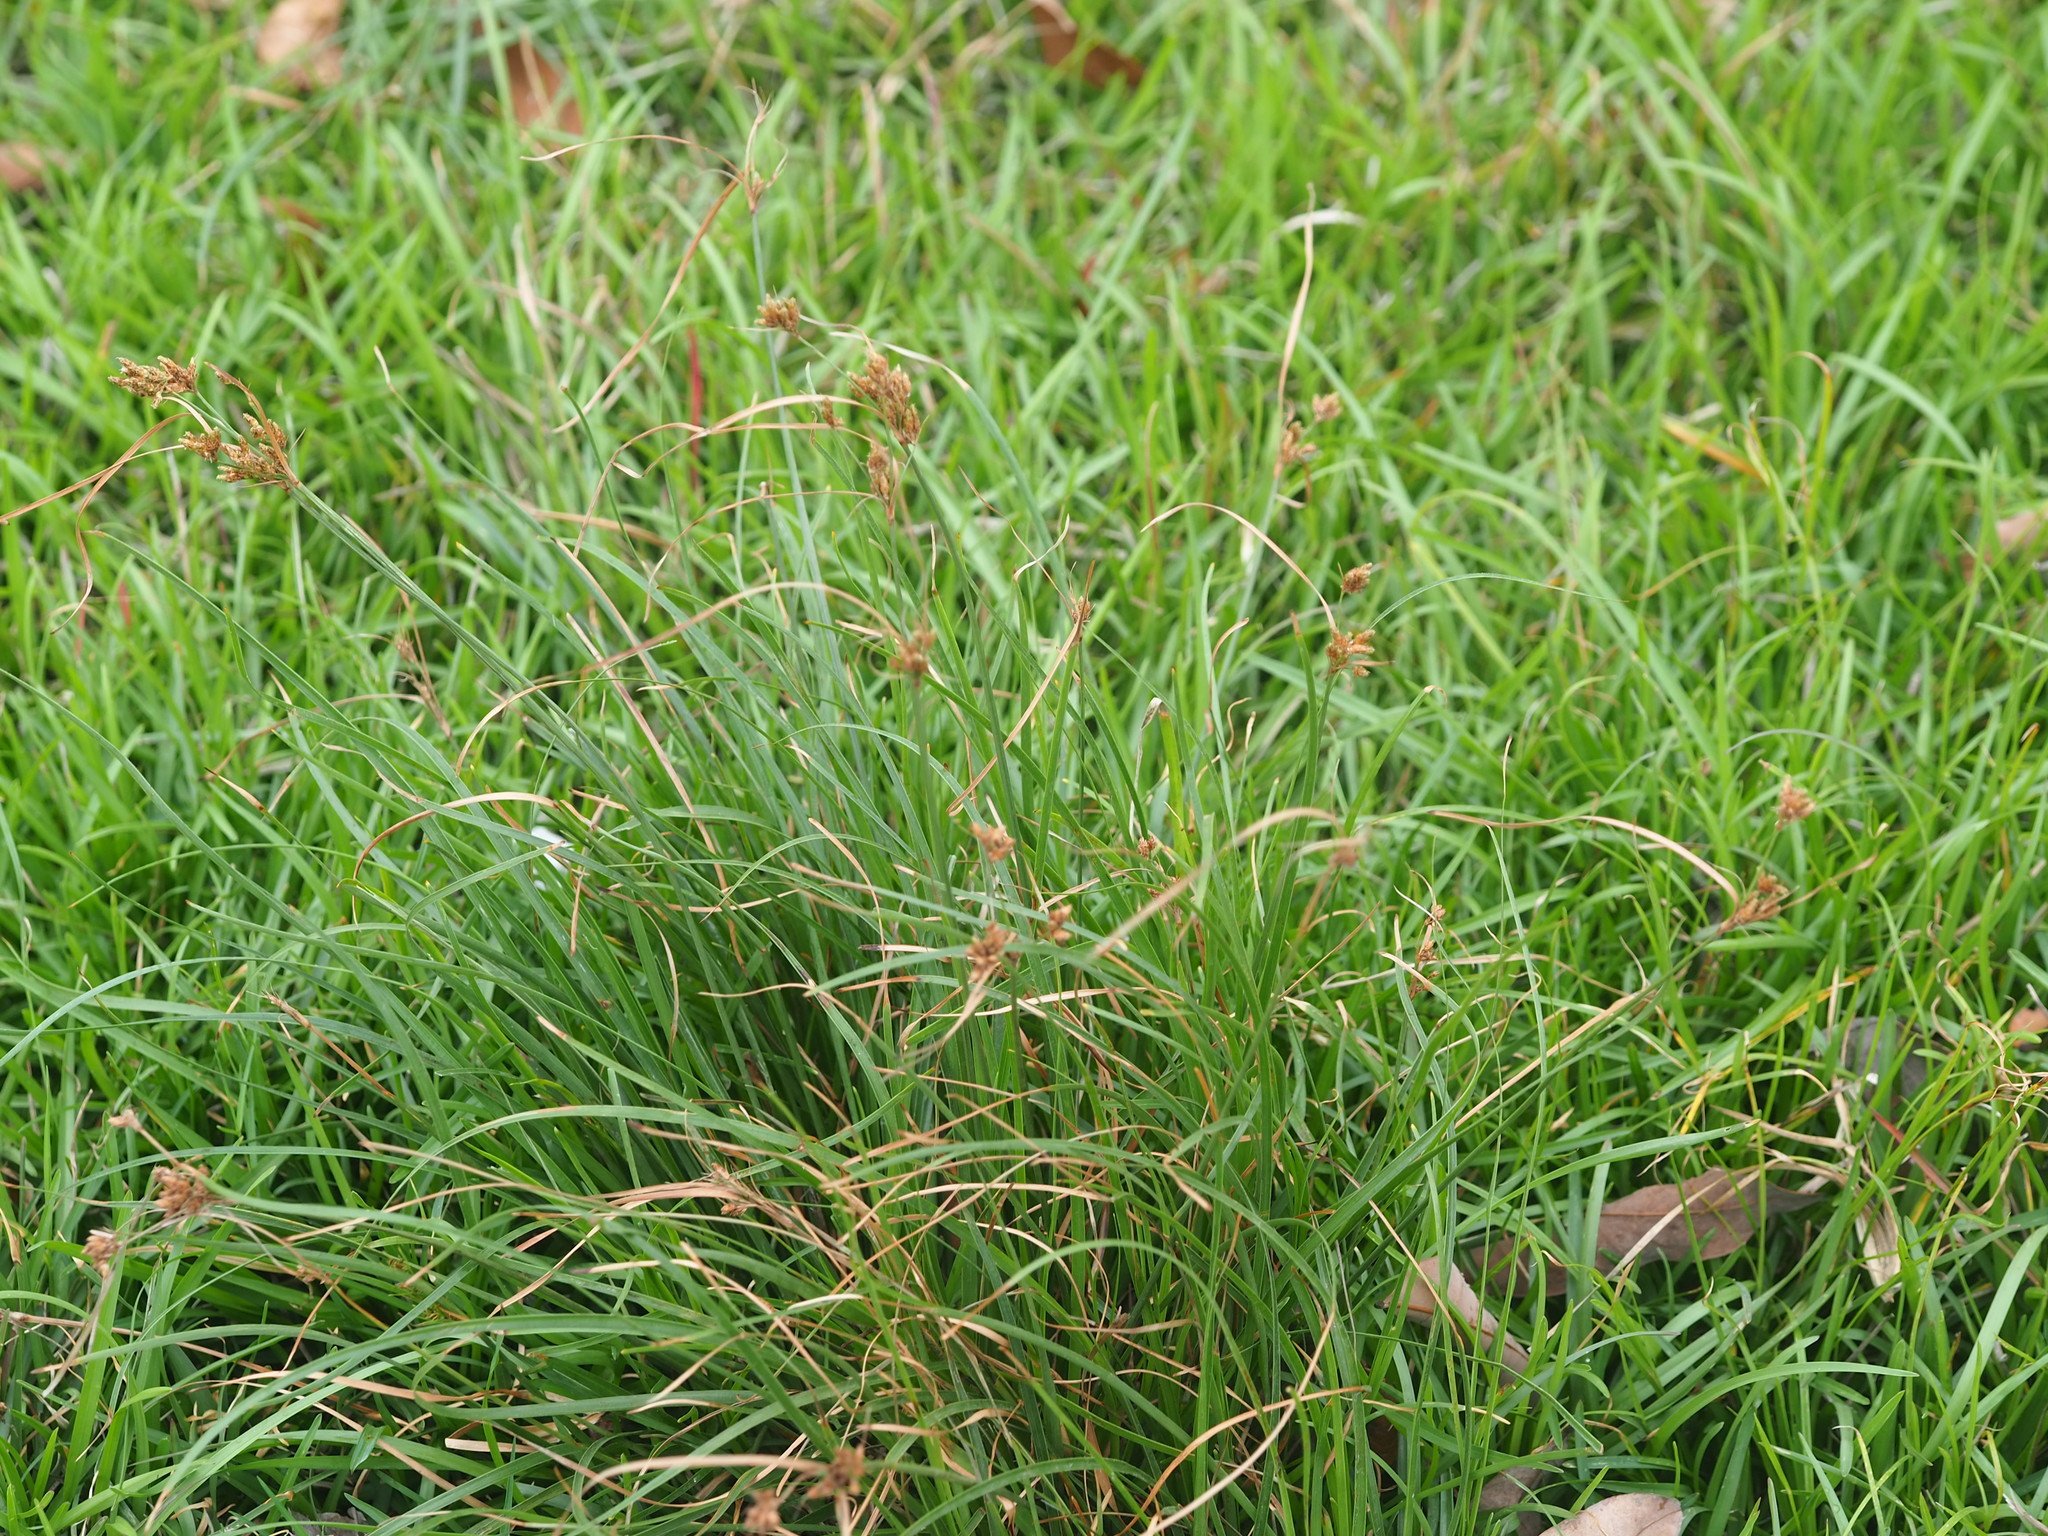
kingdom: Plantae
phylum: Tracheophyta
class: Liliopsida
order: Poales
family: Cyperaceae
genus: Fimbristylis
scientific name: Fimbristylis dichotoma
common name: Forked fimbry
